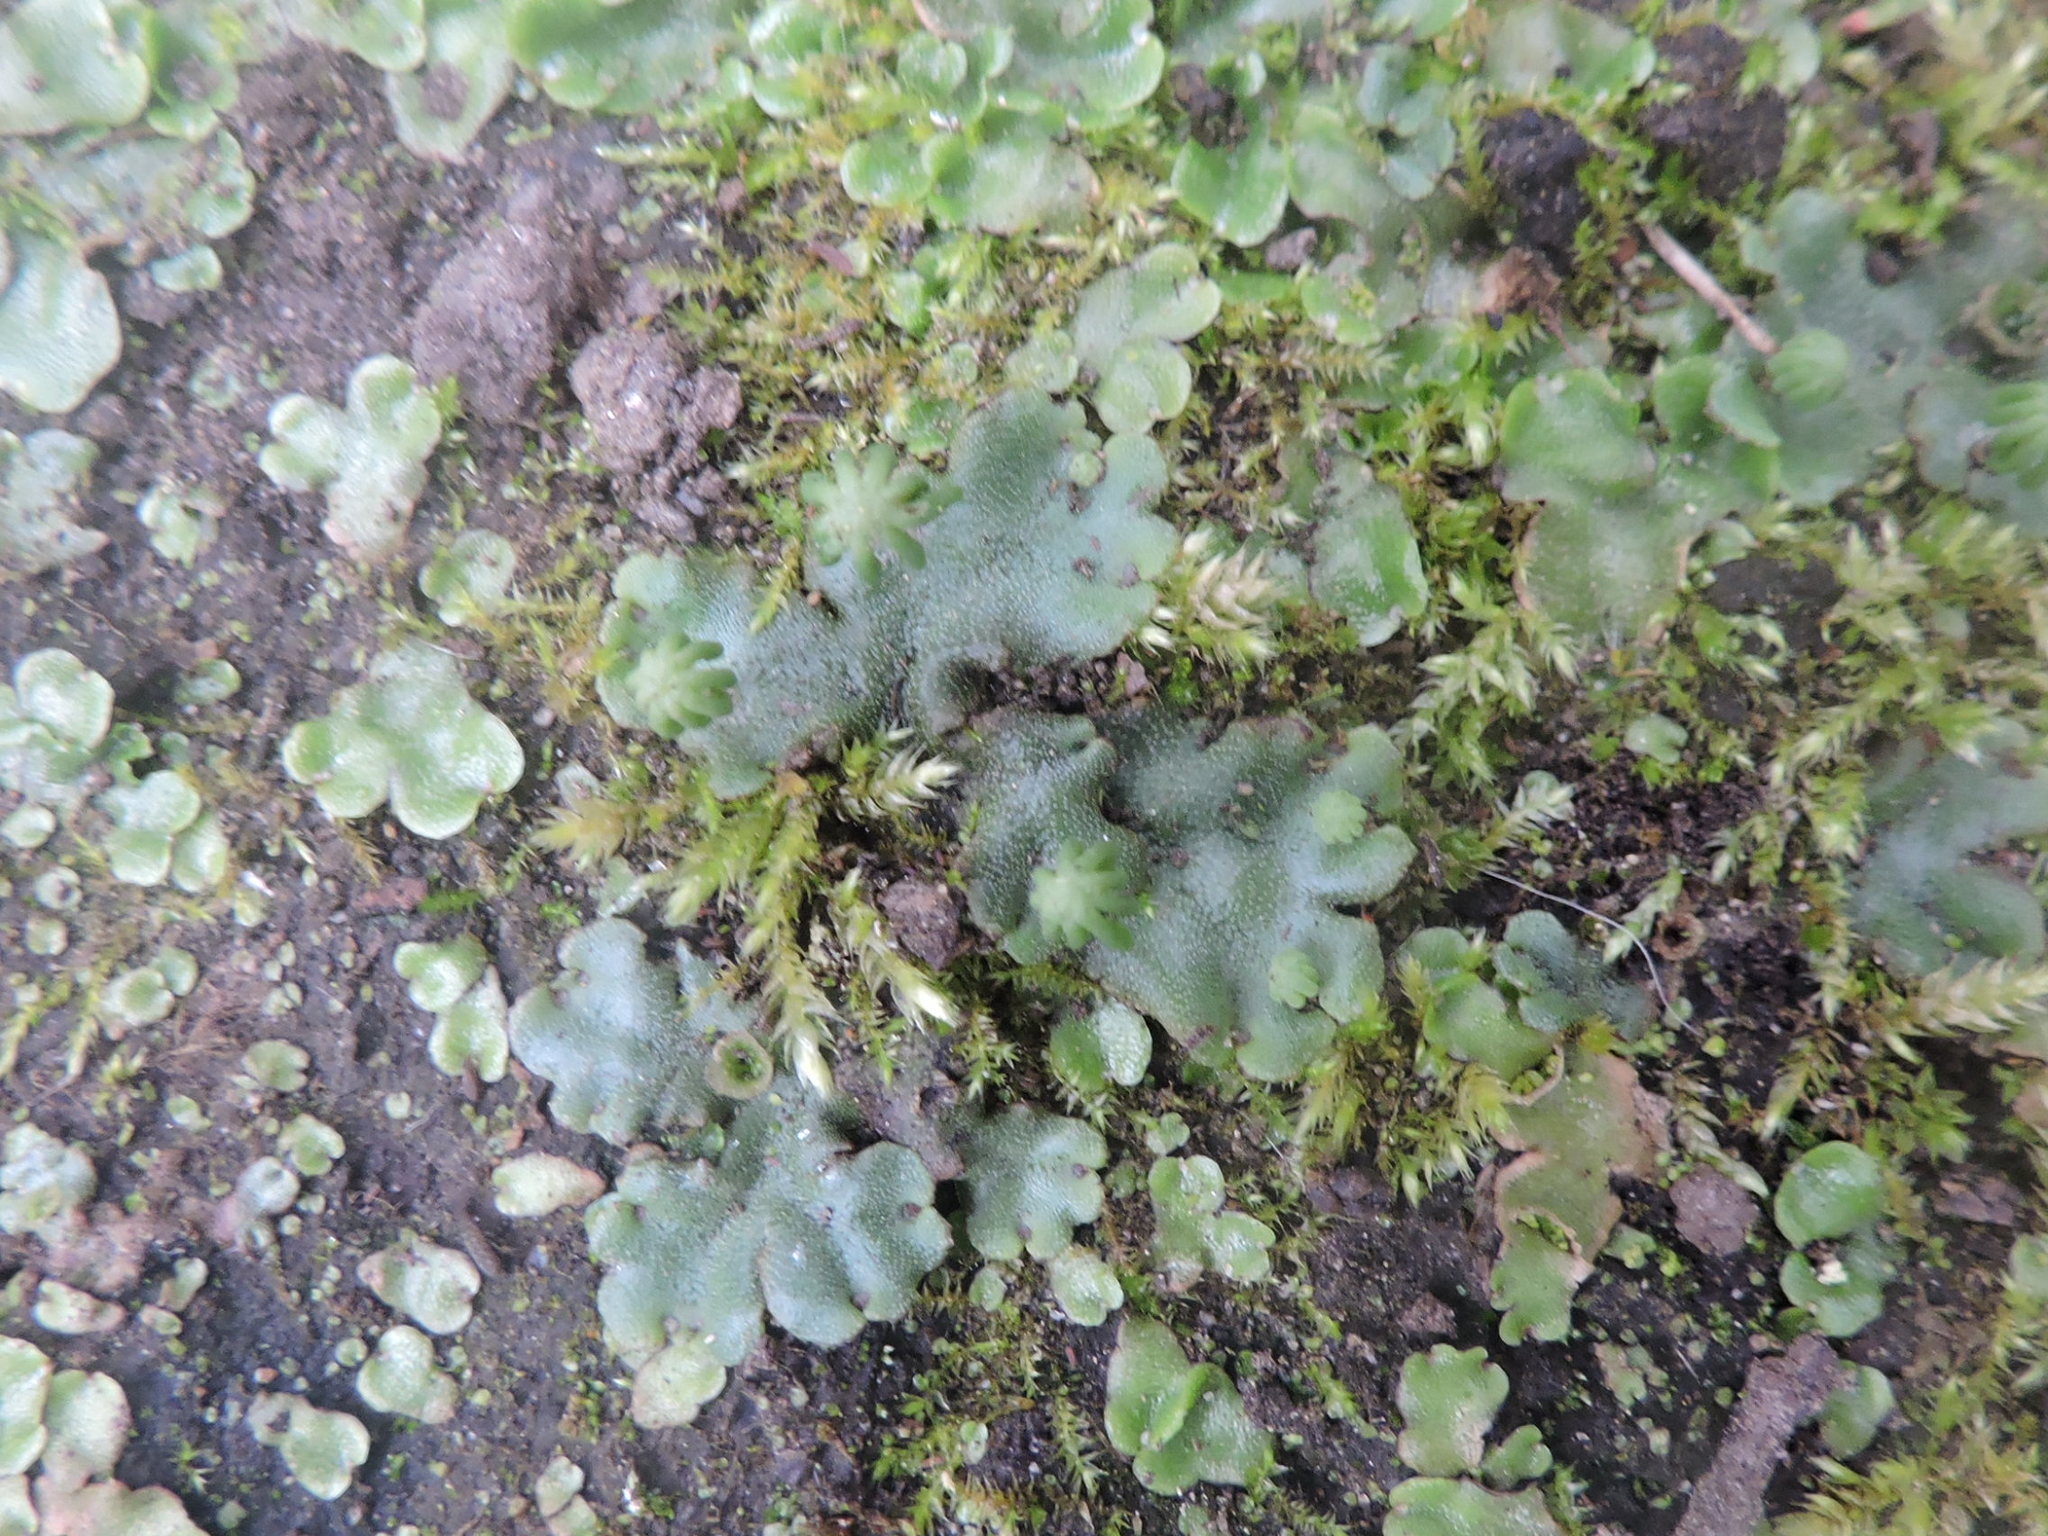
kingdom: Plantae
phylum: Marchantiophyta
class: Marchantiopsida
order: Marchantiales
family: Marchantiaceae
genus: Marchantia
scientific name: Marchantia polymorpha
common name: Common liverwort
